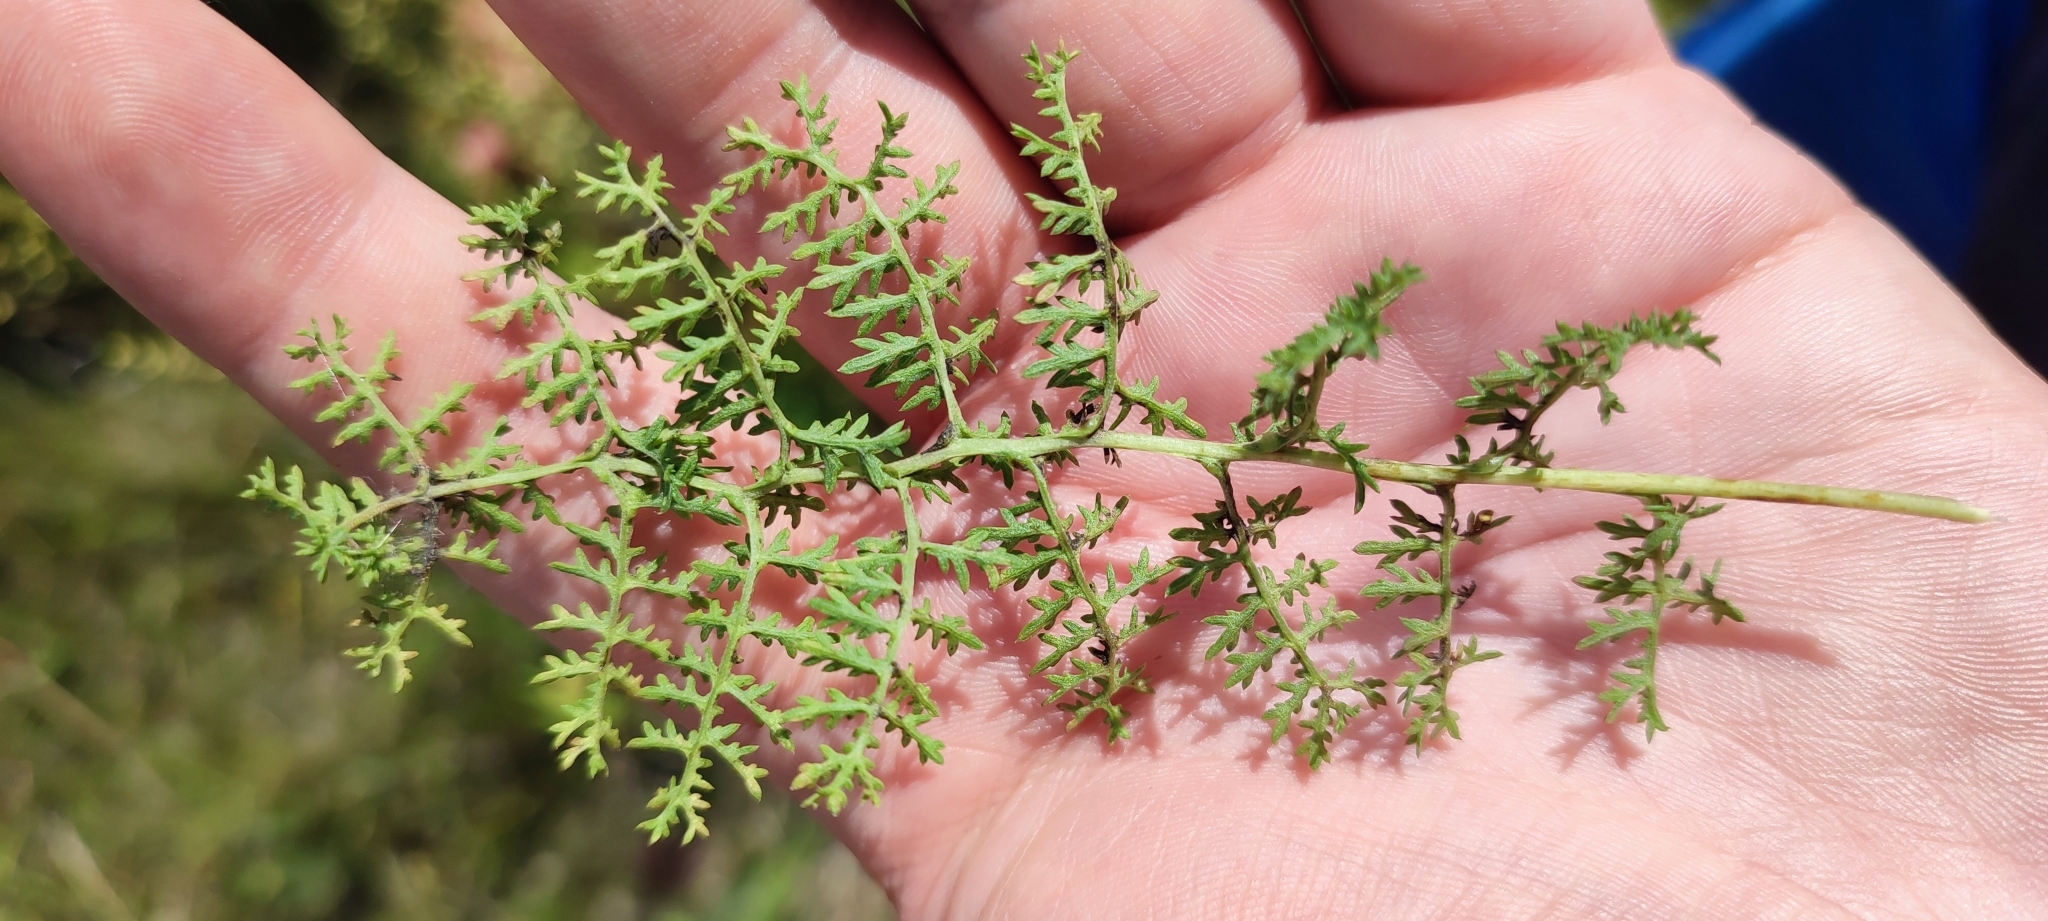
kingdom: Plantae
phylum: Tracheophyta
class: Magnoliopsida
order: Asterales
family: Asteraceae
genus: Artemisia
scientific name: Artemisia rupestris
